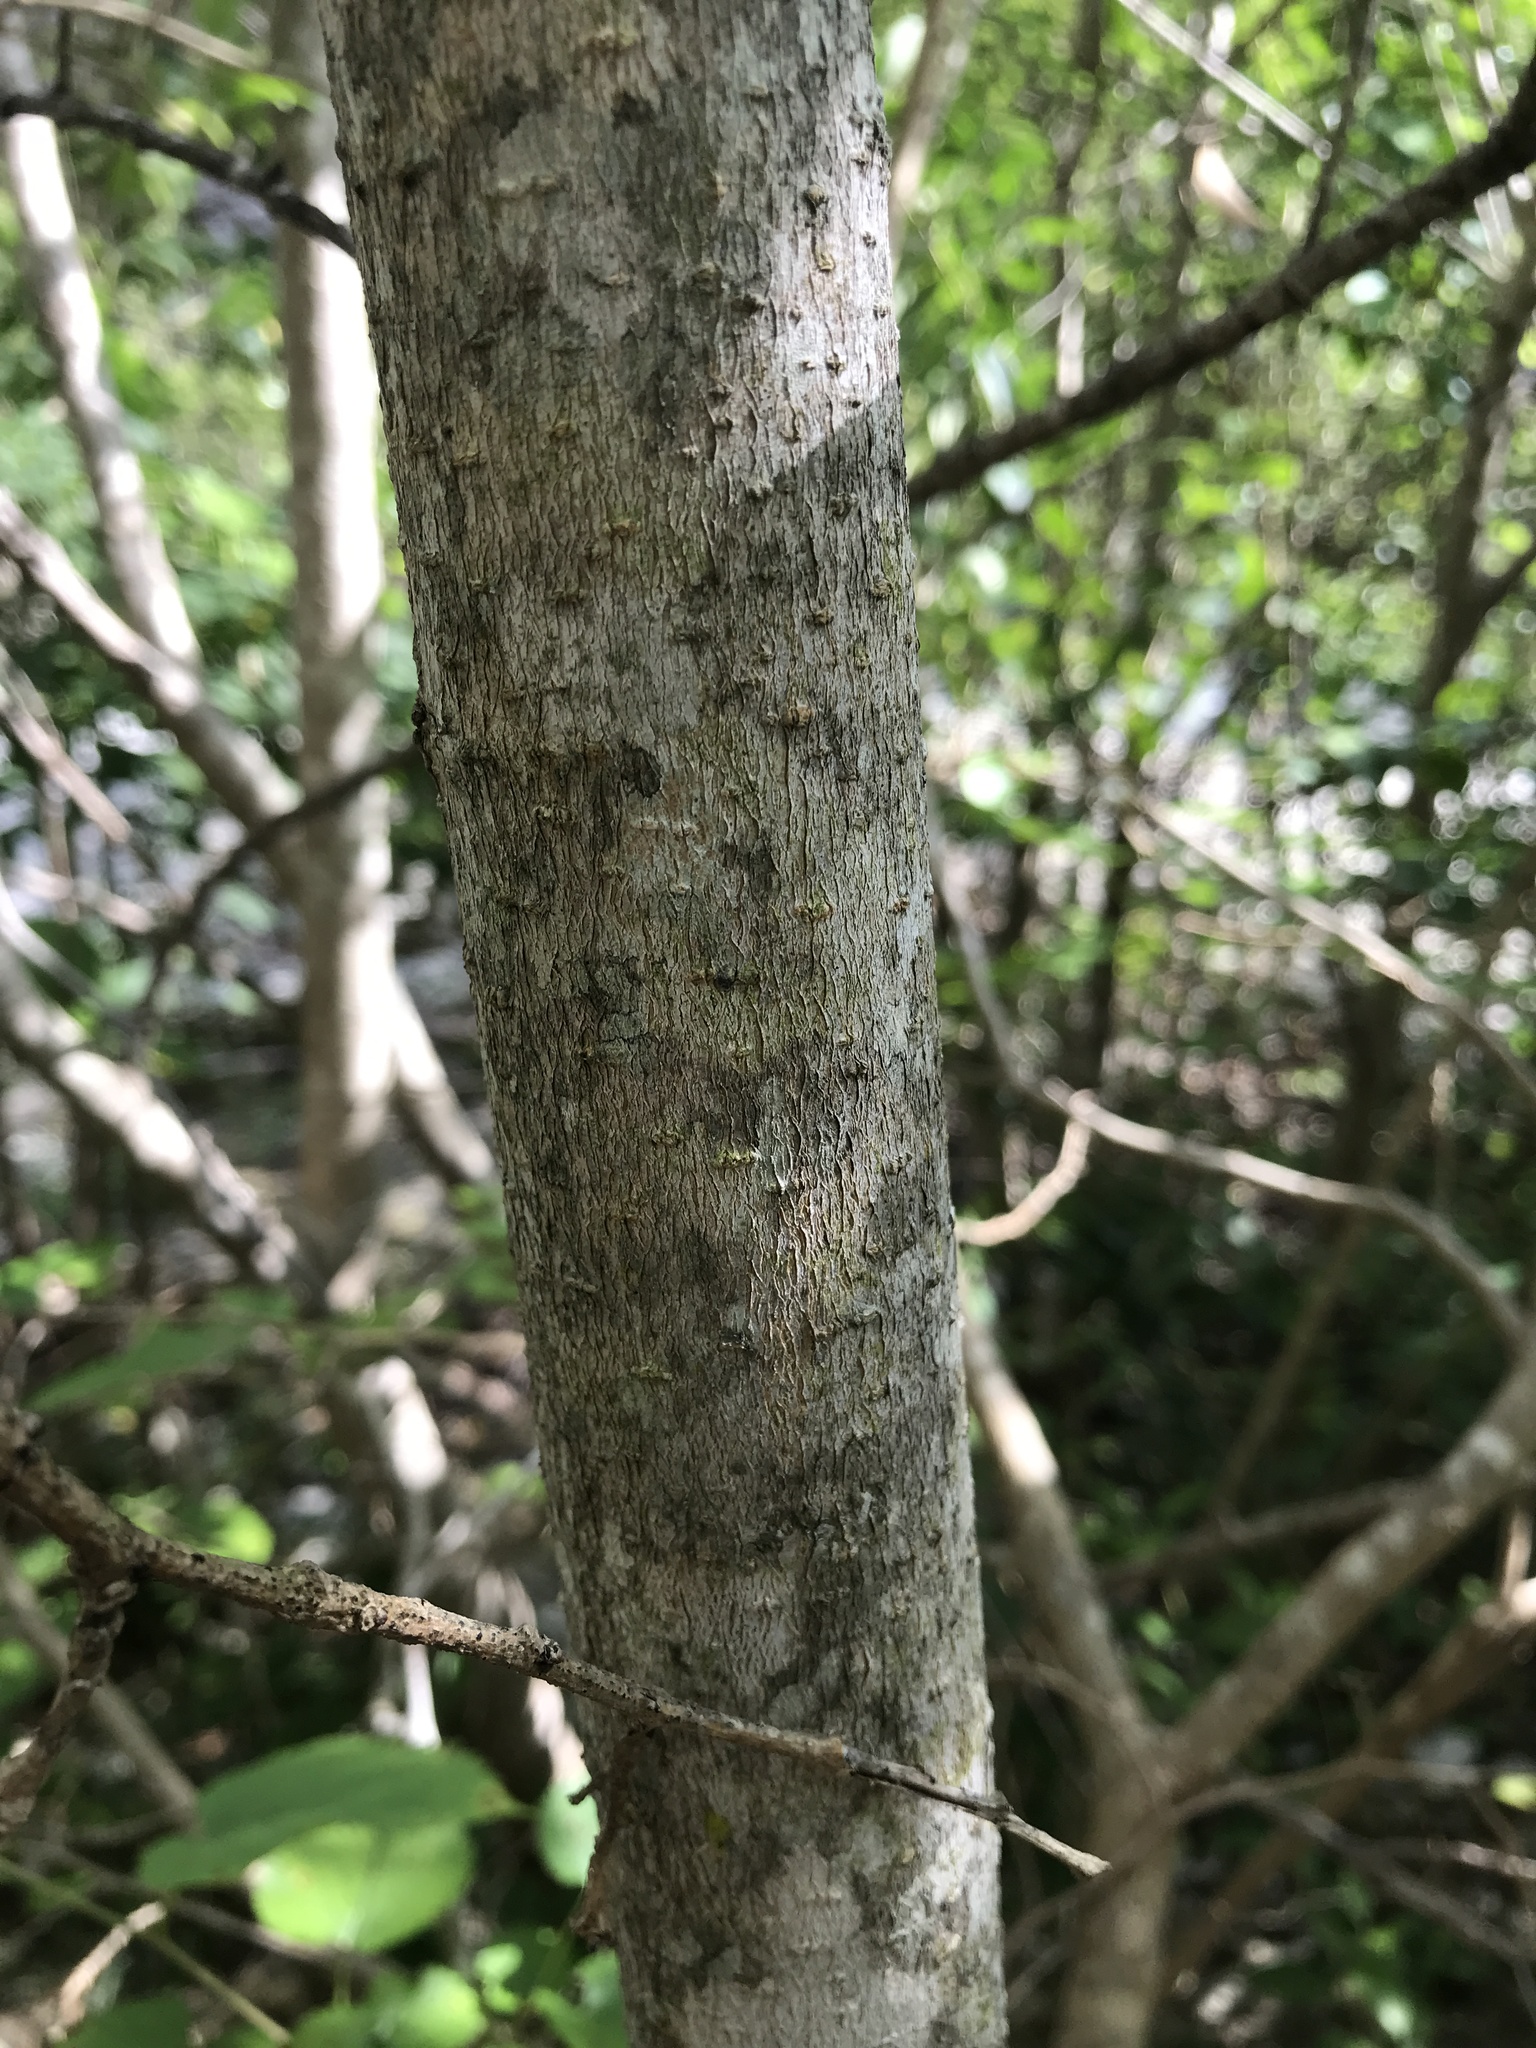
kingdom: Plantae
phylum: Tracheophyta
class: Magnoliopsida
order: Rosales
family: Moraceae
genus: Morus
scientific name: Morus alba
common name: White mulberry
